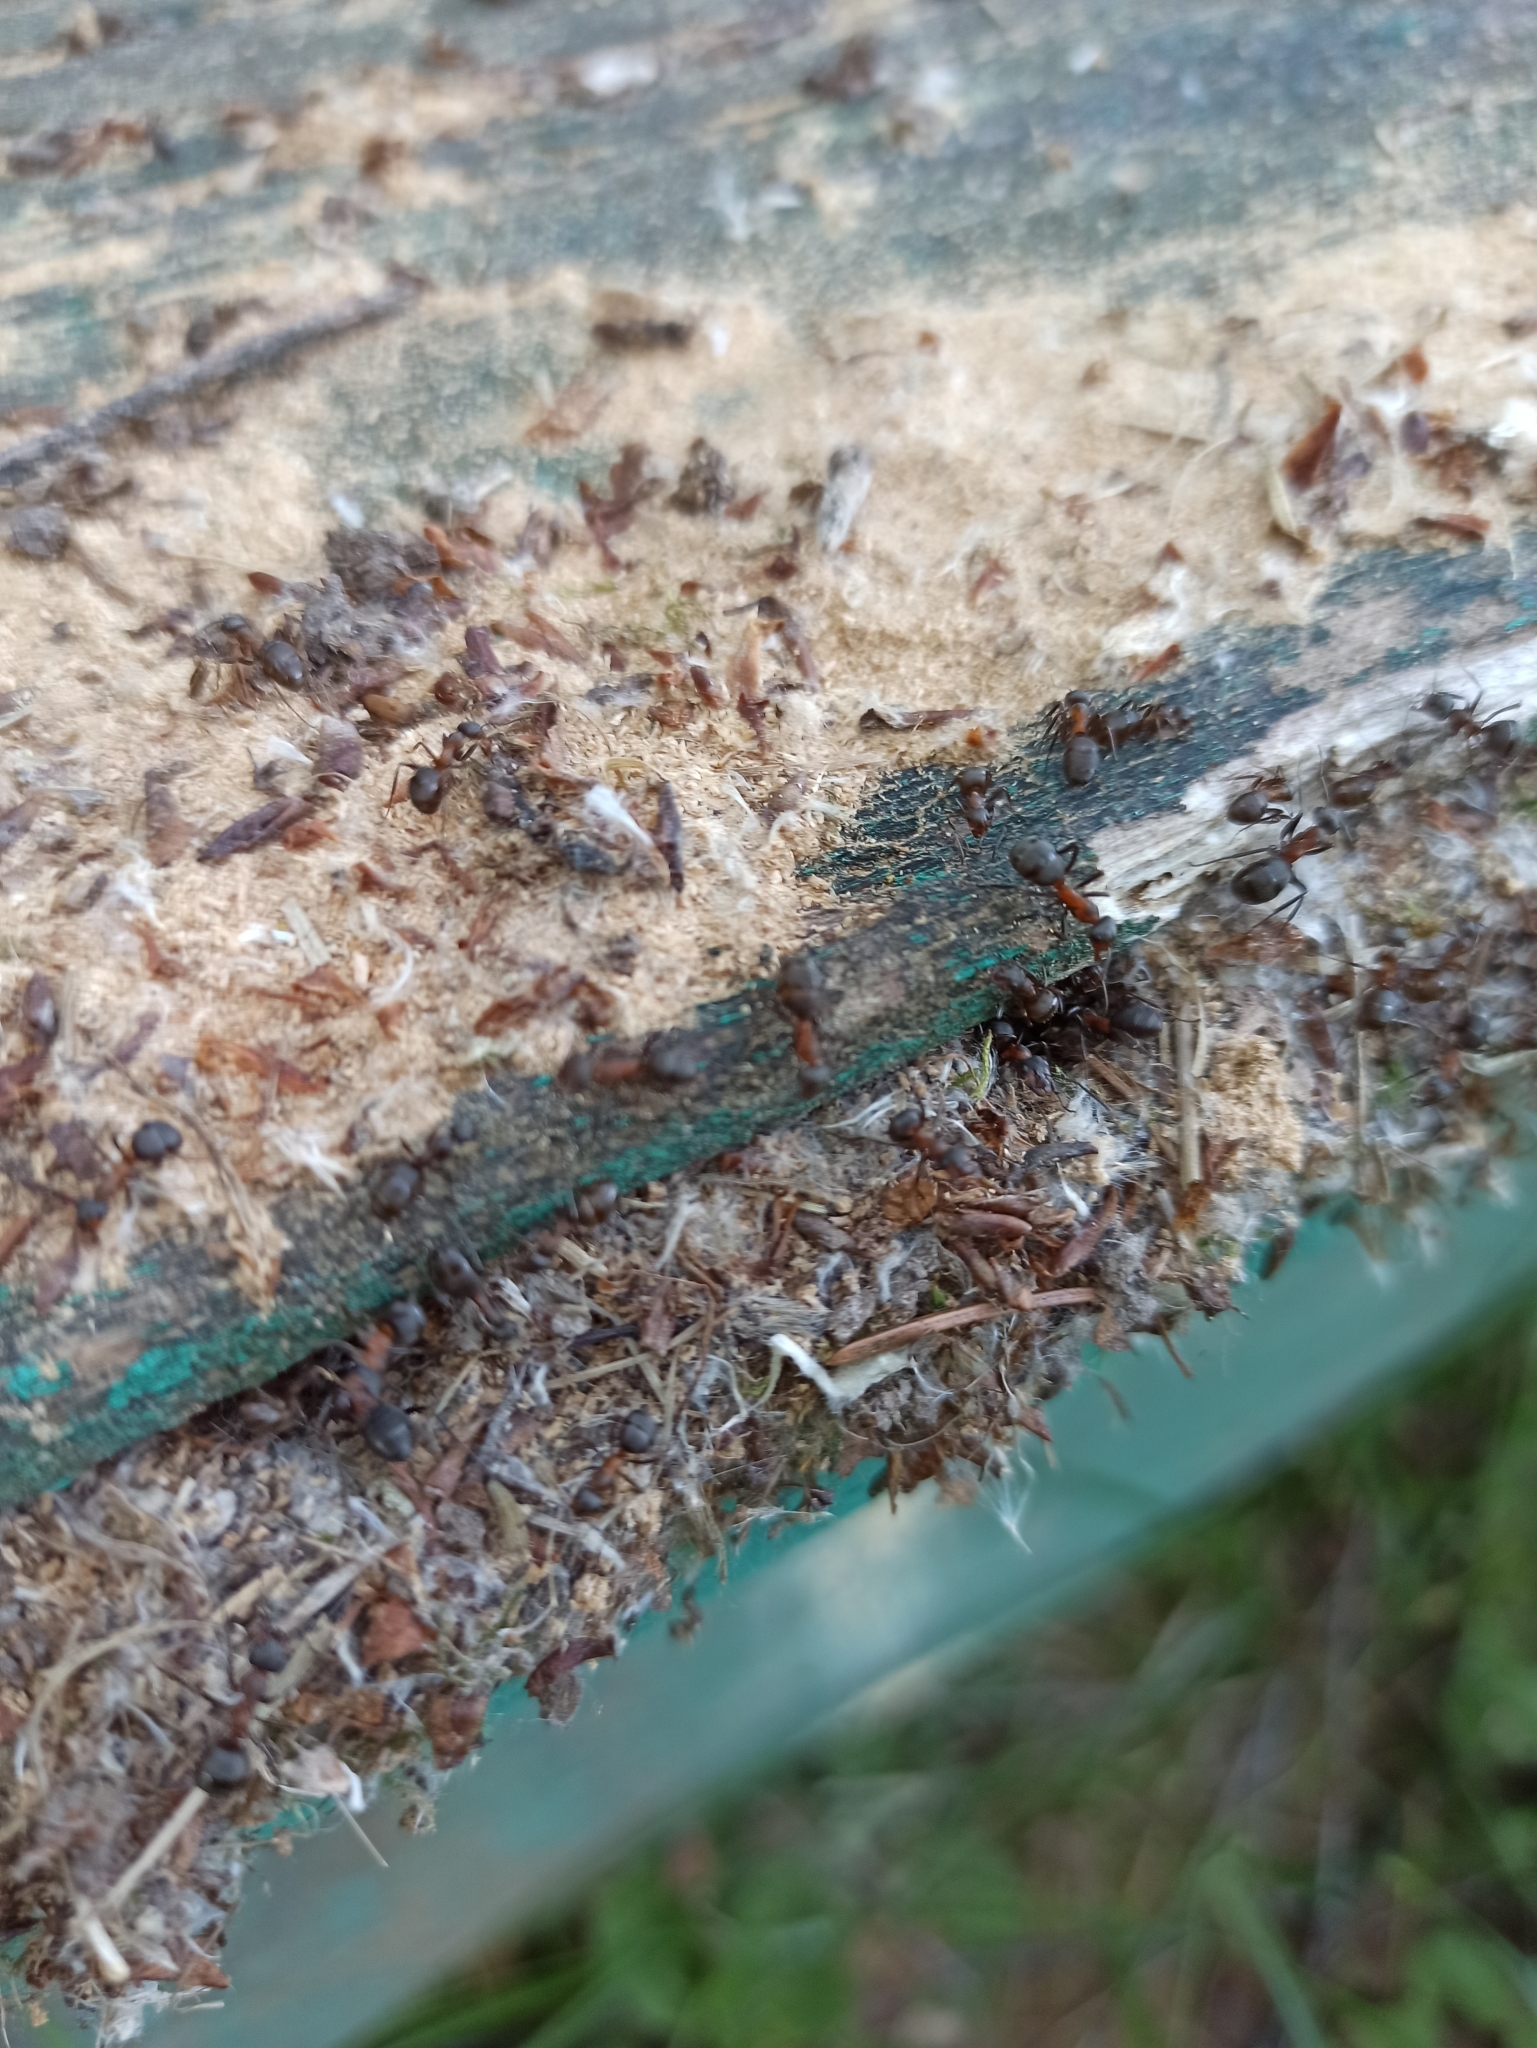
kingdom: Animalia
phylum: Arthropoda
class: Insecta
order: Hymenoptera
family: Formicidae
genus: Formica
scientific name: Formica rufa
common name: Red wood ant
